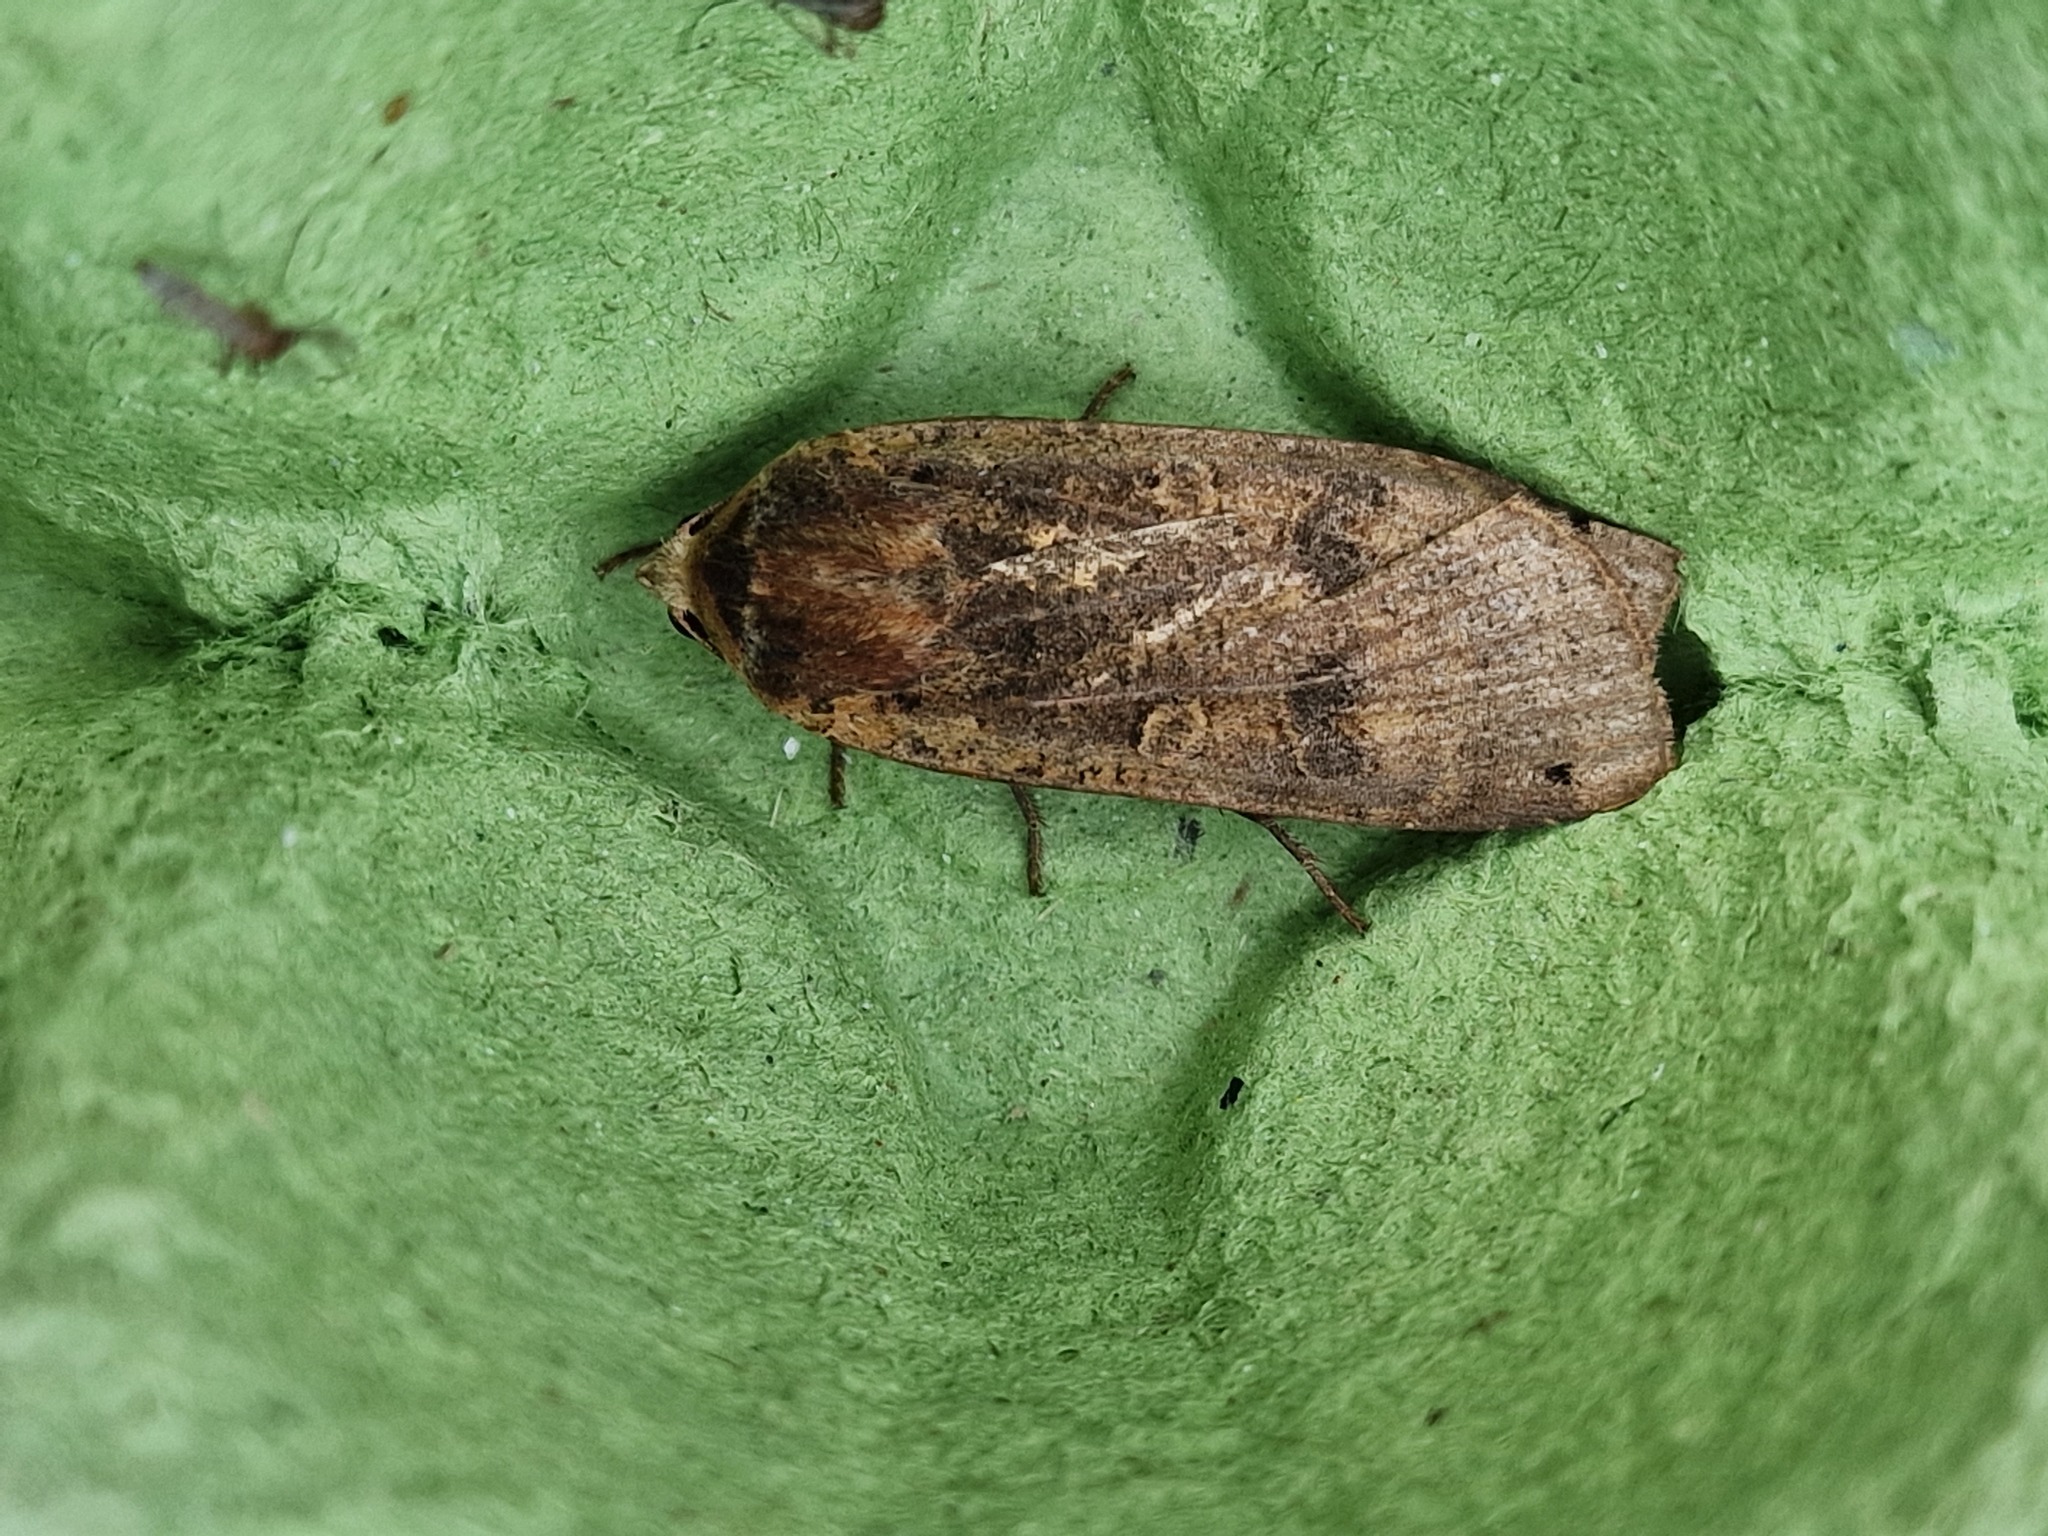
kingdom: Animalia
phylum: Arthropoda
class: Insecta
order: Lepidoptera
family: Noctuidae
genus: Noctua
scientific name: Noctua pronuba
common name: Large yellow underwing
